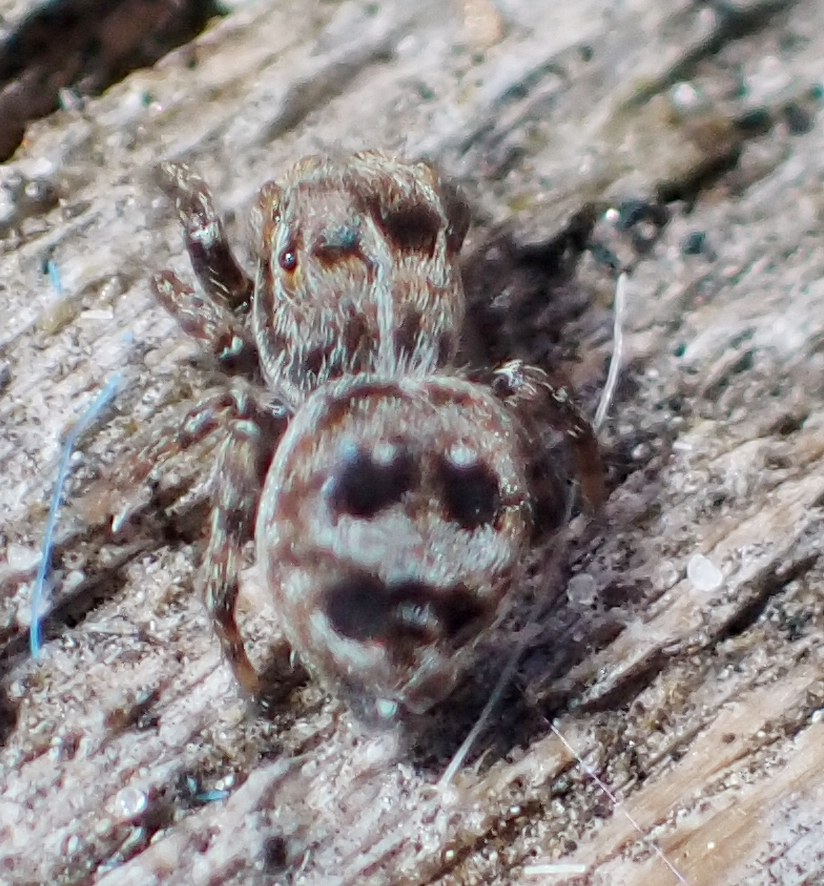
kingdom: Animalia
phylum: Arthropoda
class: Arachnida
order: Araneae
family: Salticidae
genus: Attulus
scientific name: Attulus floricola
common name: Flower jumping spider
